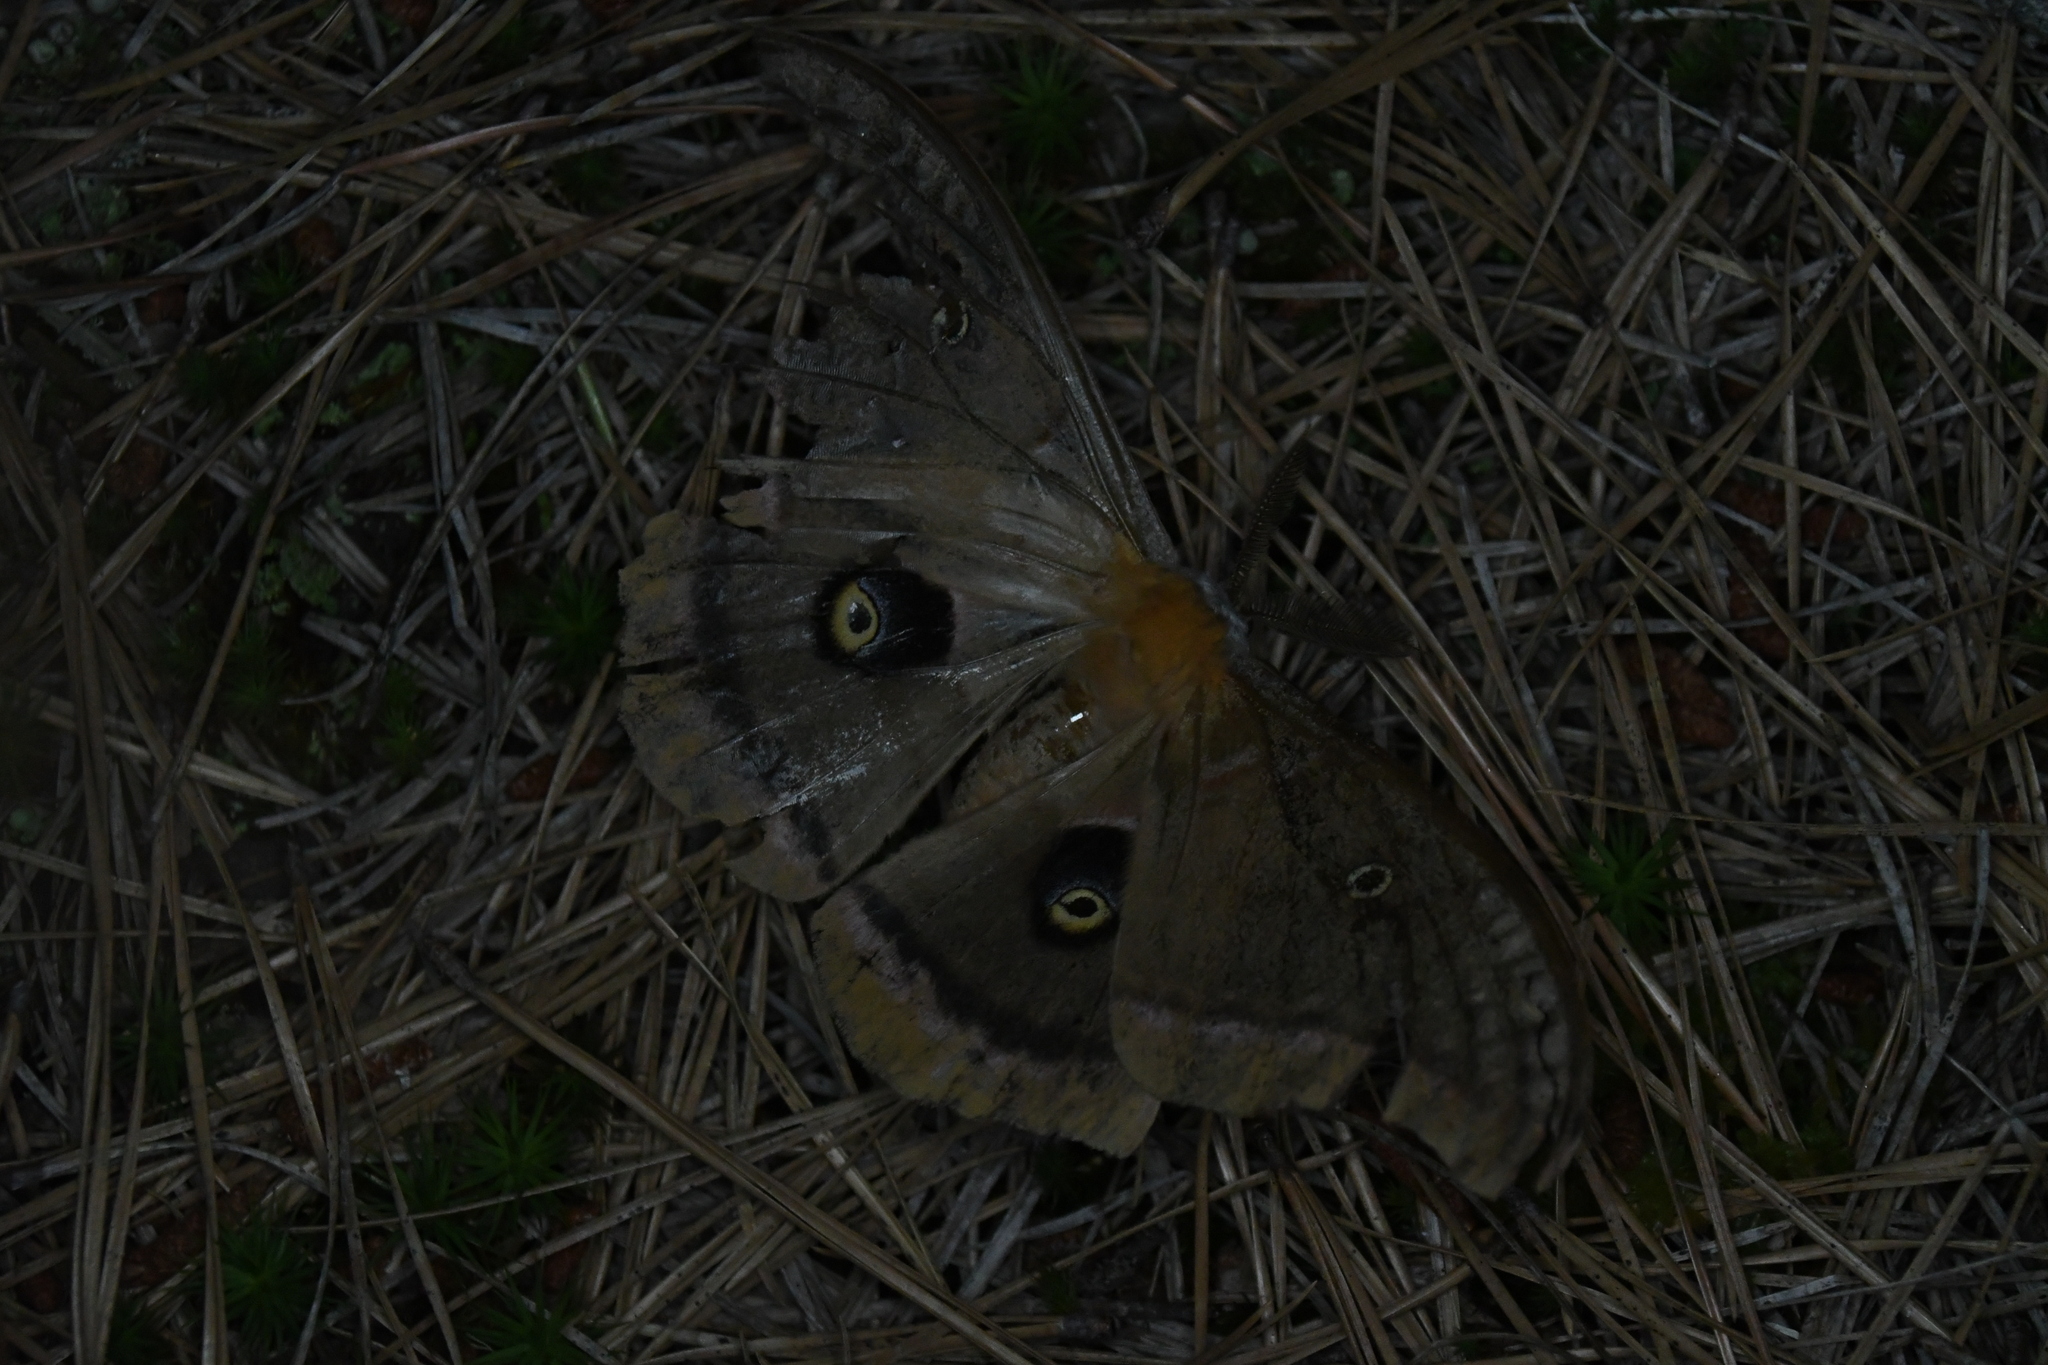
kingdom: Animalia
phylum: Arthropoda
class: Insecta
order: Lepidoptera
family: Saturniidae
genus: Antheraea
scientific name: Antheraea polyphemus
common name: Polyphemus moth
